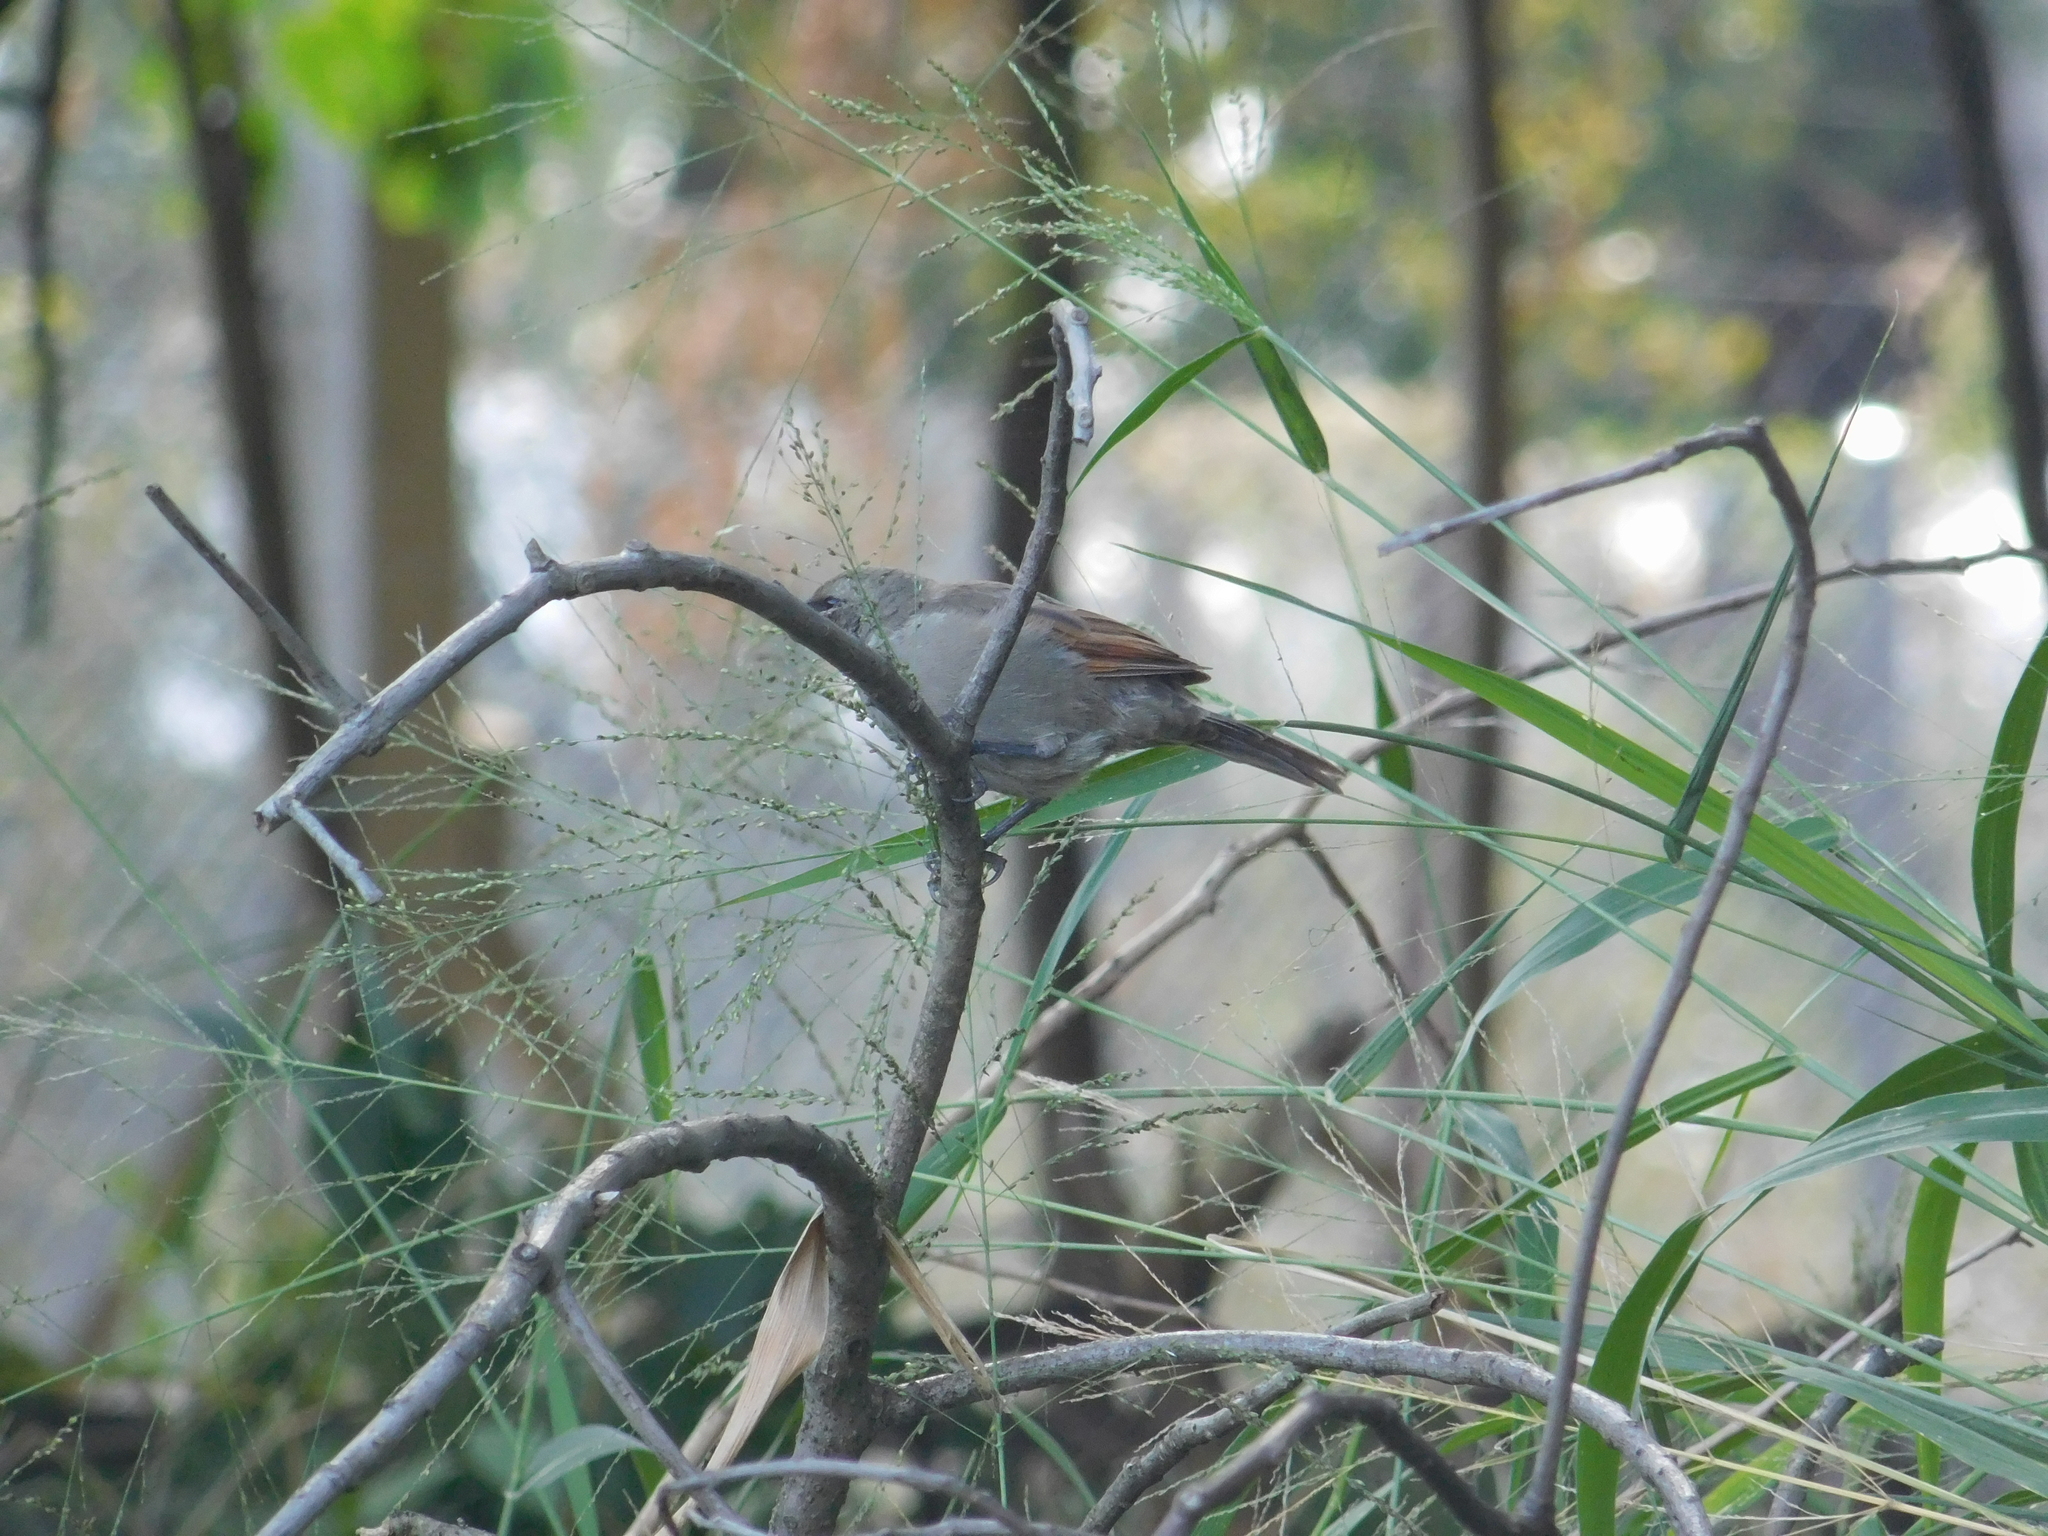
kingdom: Animalia
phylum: Chordata
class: Aves
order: Passeriformes
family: Icteridae
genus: Agelaioides
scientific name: Agelaioides badius
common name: Baywing
